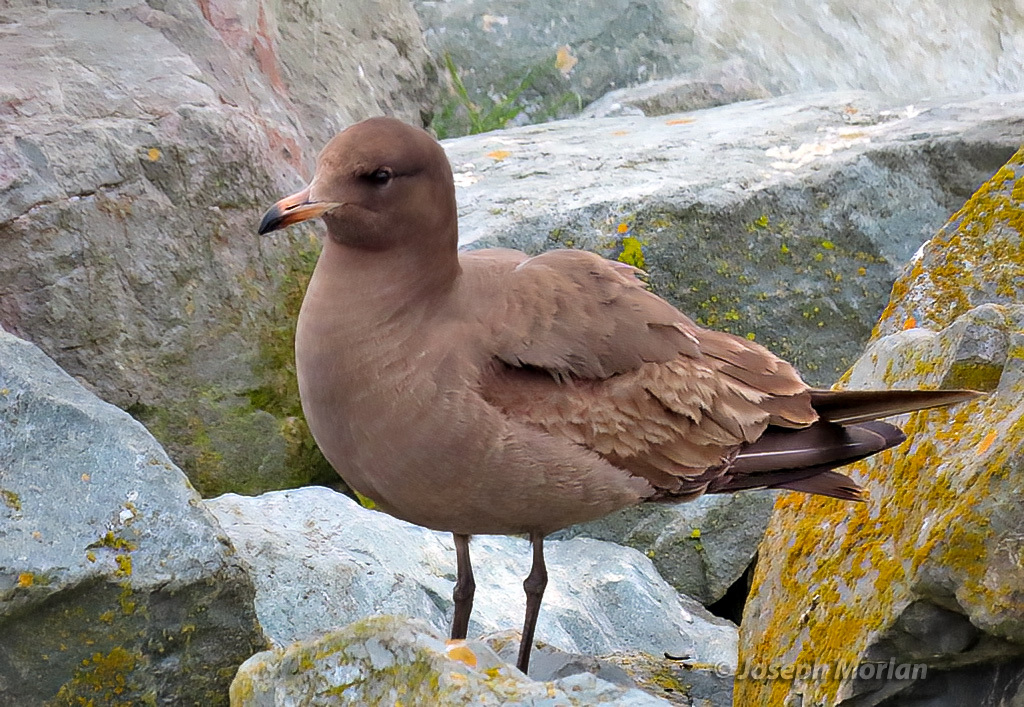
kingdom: Animalia
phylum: Chordata
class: Aves
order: Charadriiformes
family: Laridae
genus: Larus
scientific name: Larus heermanni
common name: Heermann's gull
